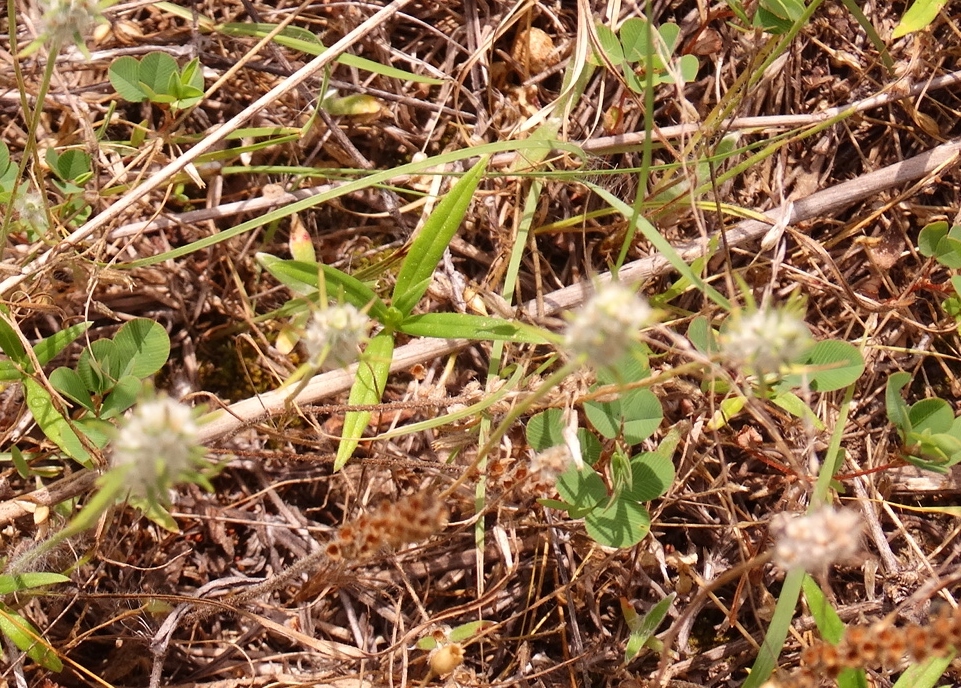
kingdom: Plantae
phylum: Tracheophyta
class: Magnoliopsida
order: Lamiales
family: Plantaginaceae
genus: Plantago
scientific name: Plantago aristata
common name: Bracted plantain
